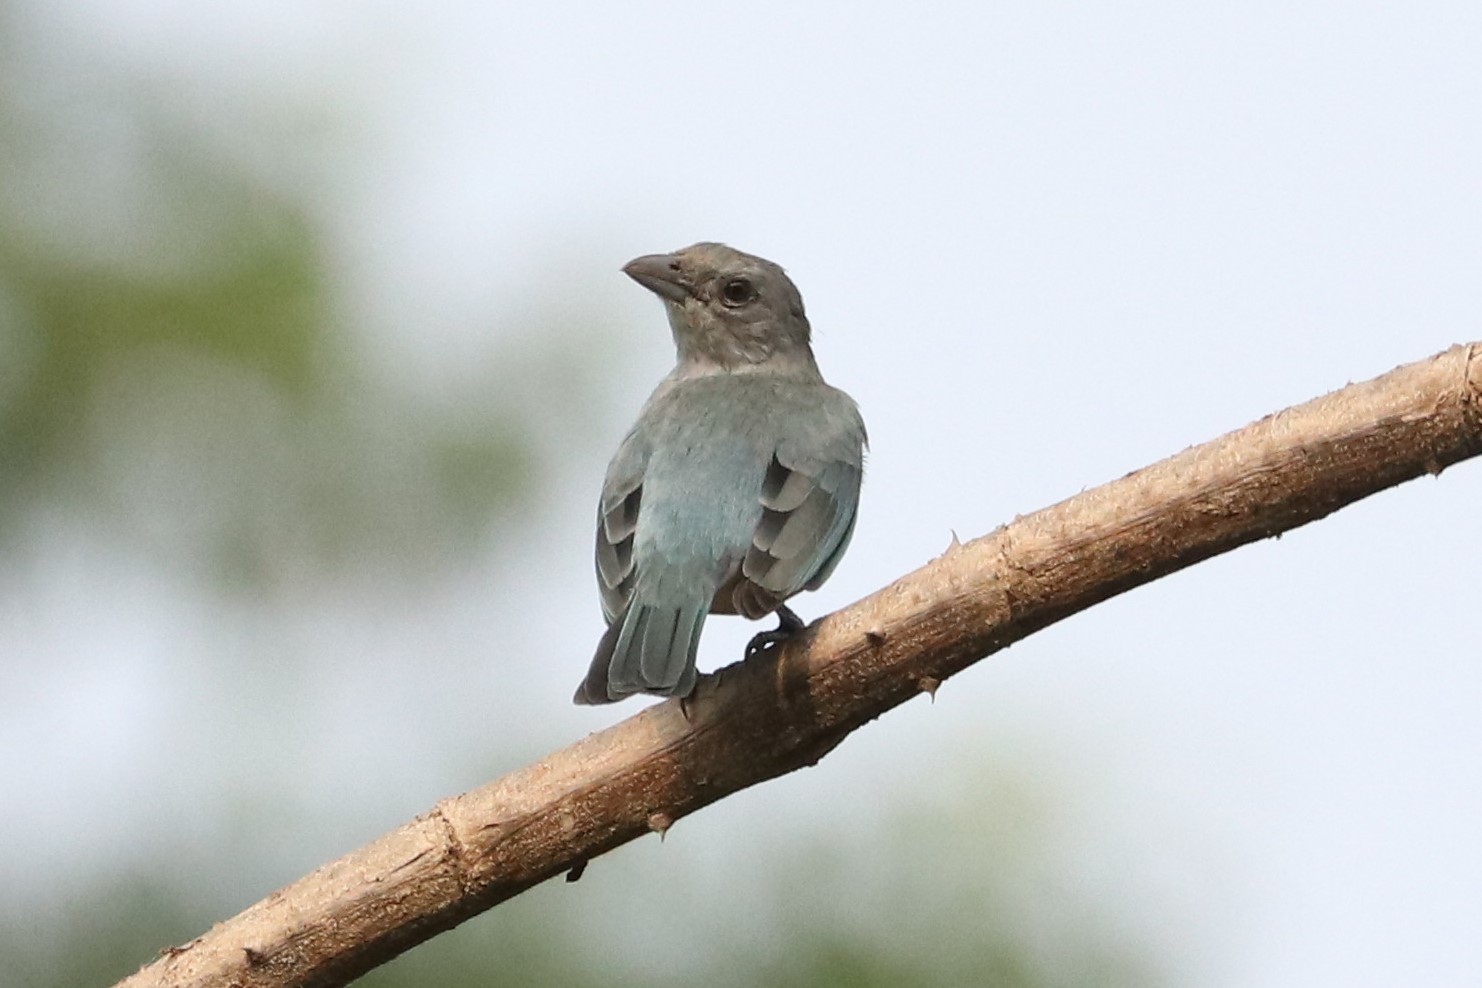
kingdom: Animalia
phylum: Chordata
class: Aves
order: Passeriformes
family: Thraupidae
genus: Thraupis
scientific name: Thraupis glaucocolpa
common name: Glaucous tanager
